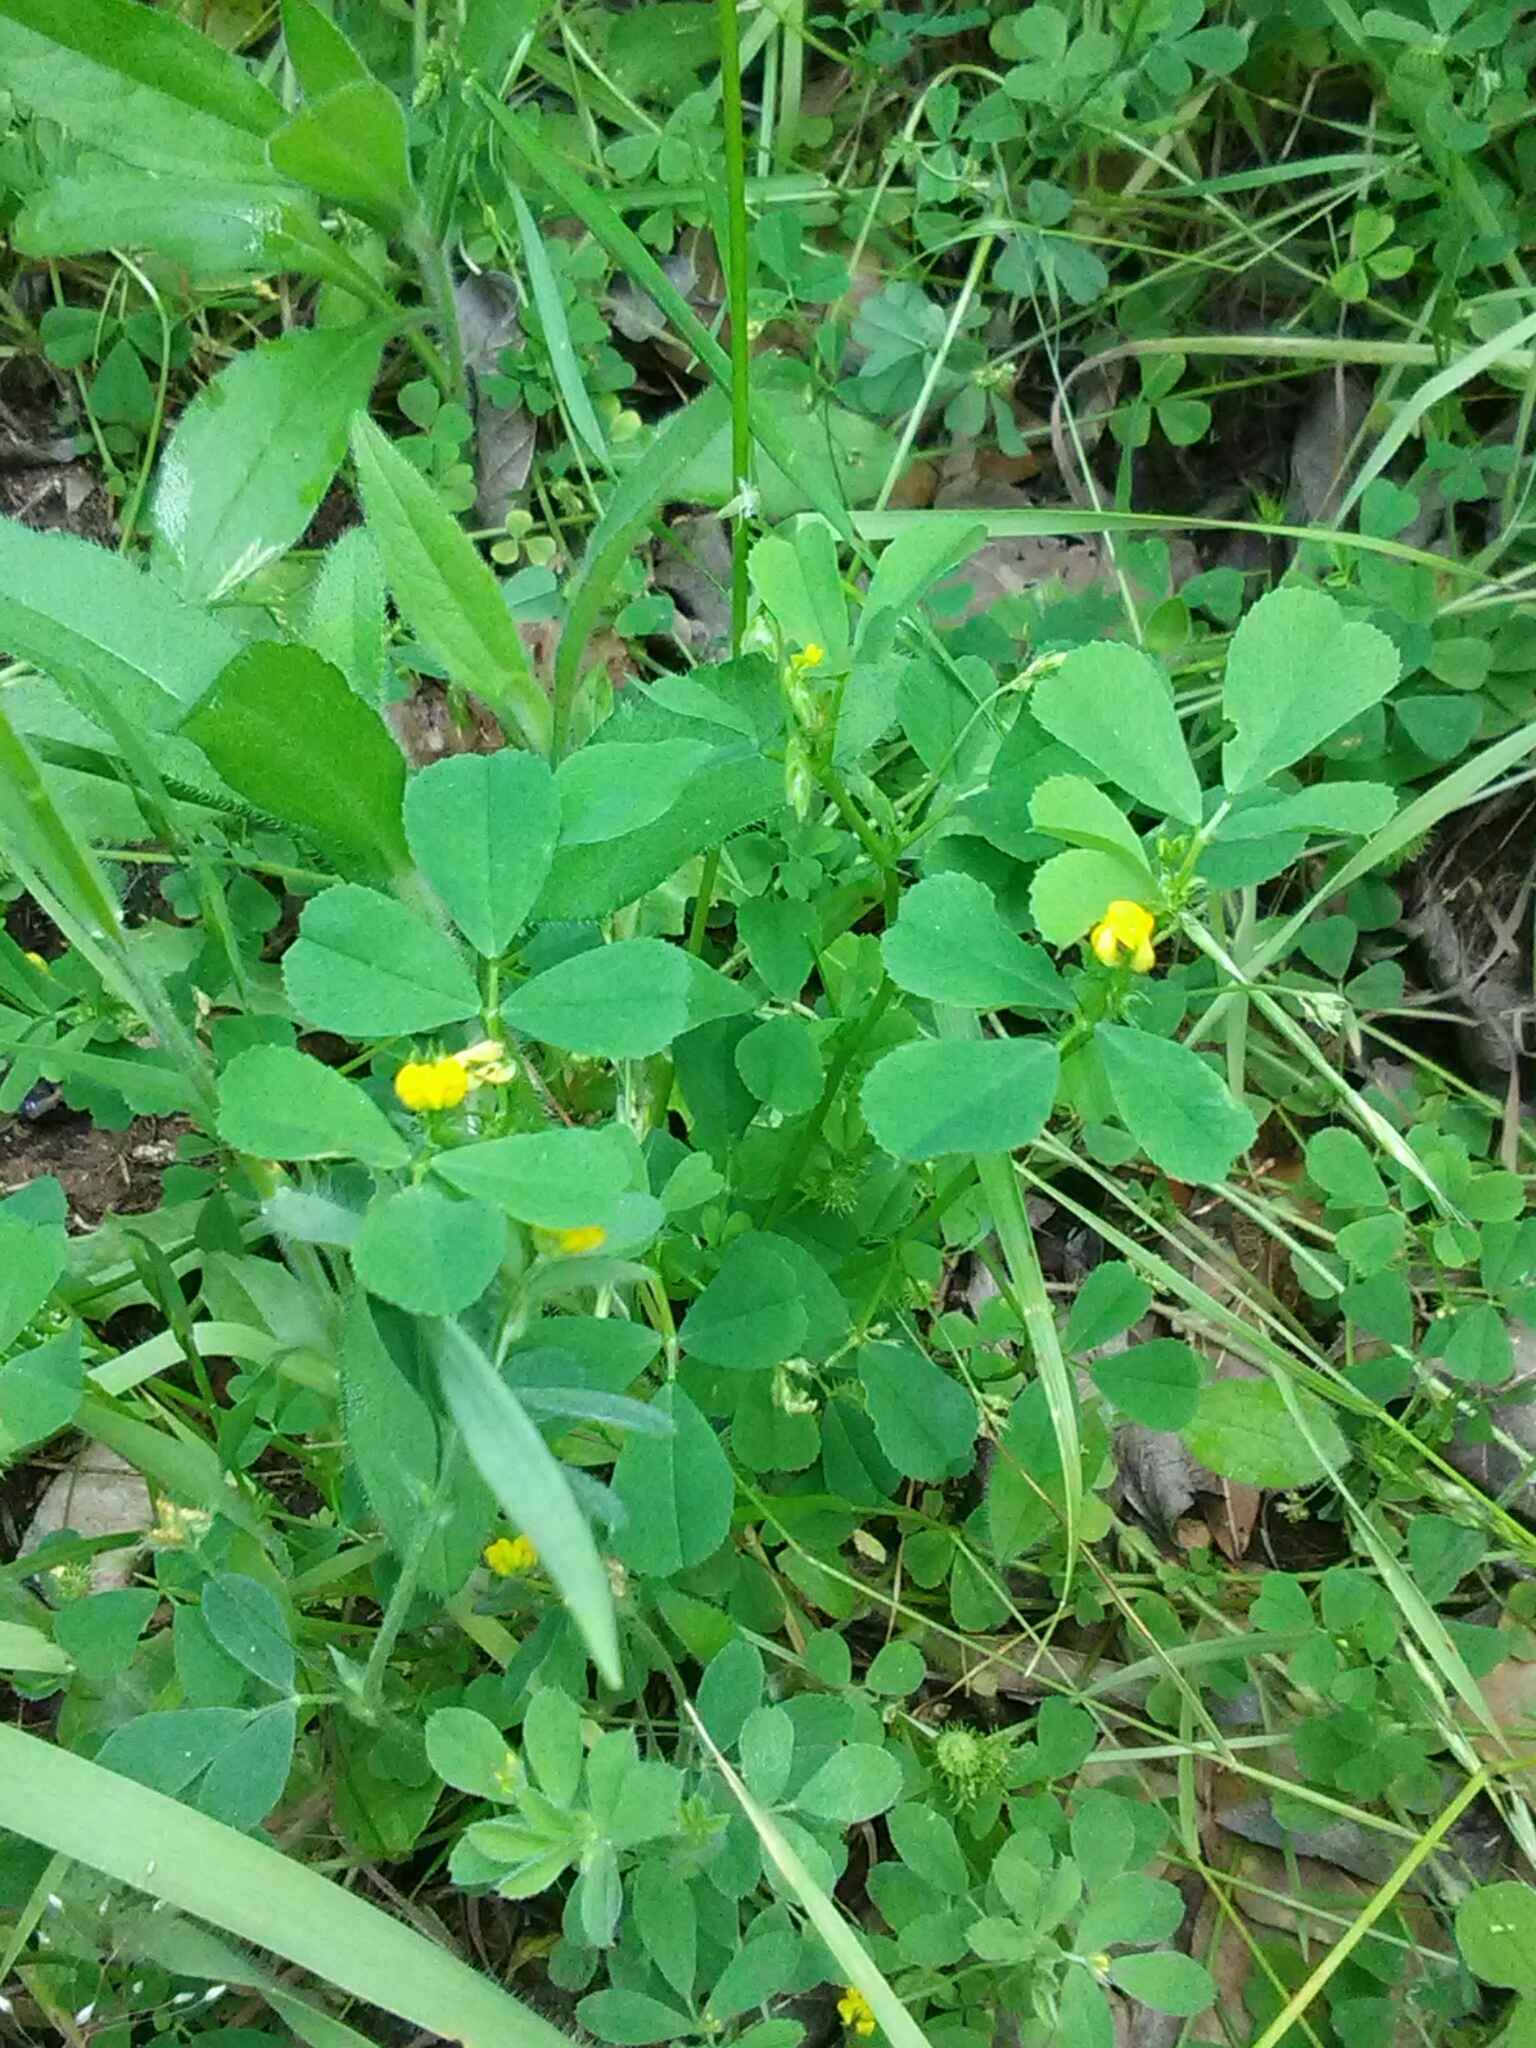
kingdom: Plantae
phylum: Tracheophyta
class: Magnoliopsida
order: Fabales
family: Fabaceae
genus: Medicago
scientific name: Medicago lupulina
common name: Black medick
